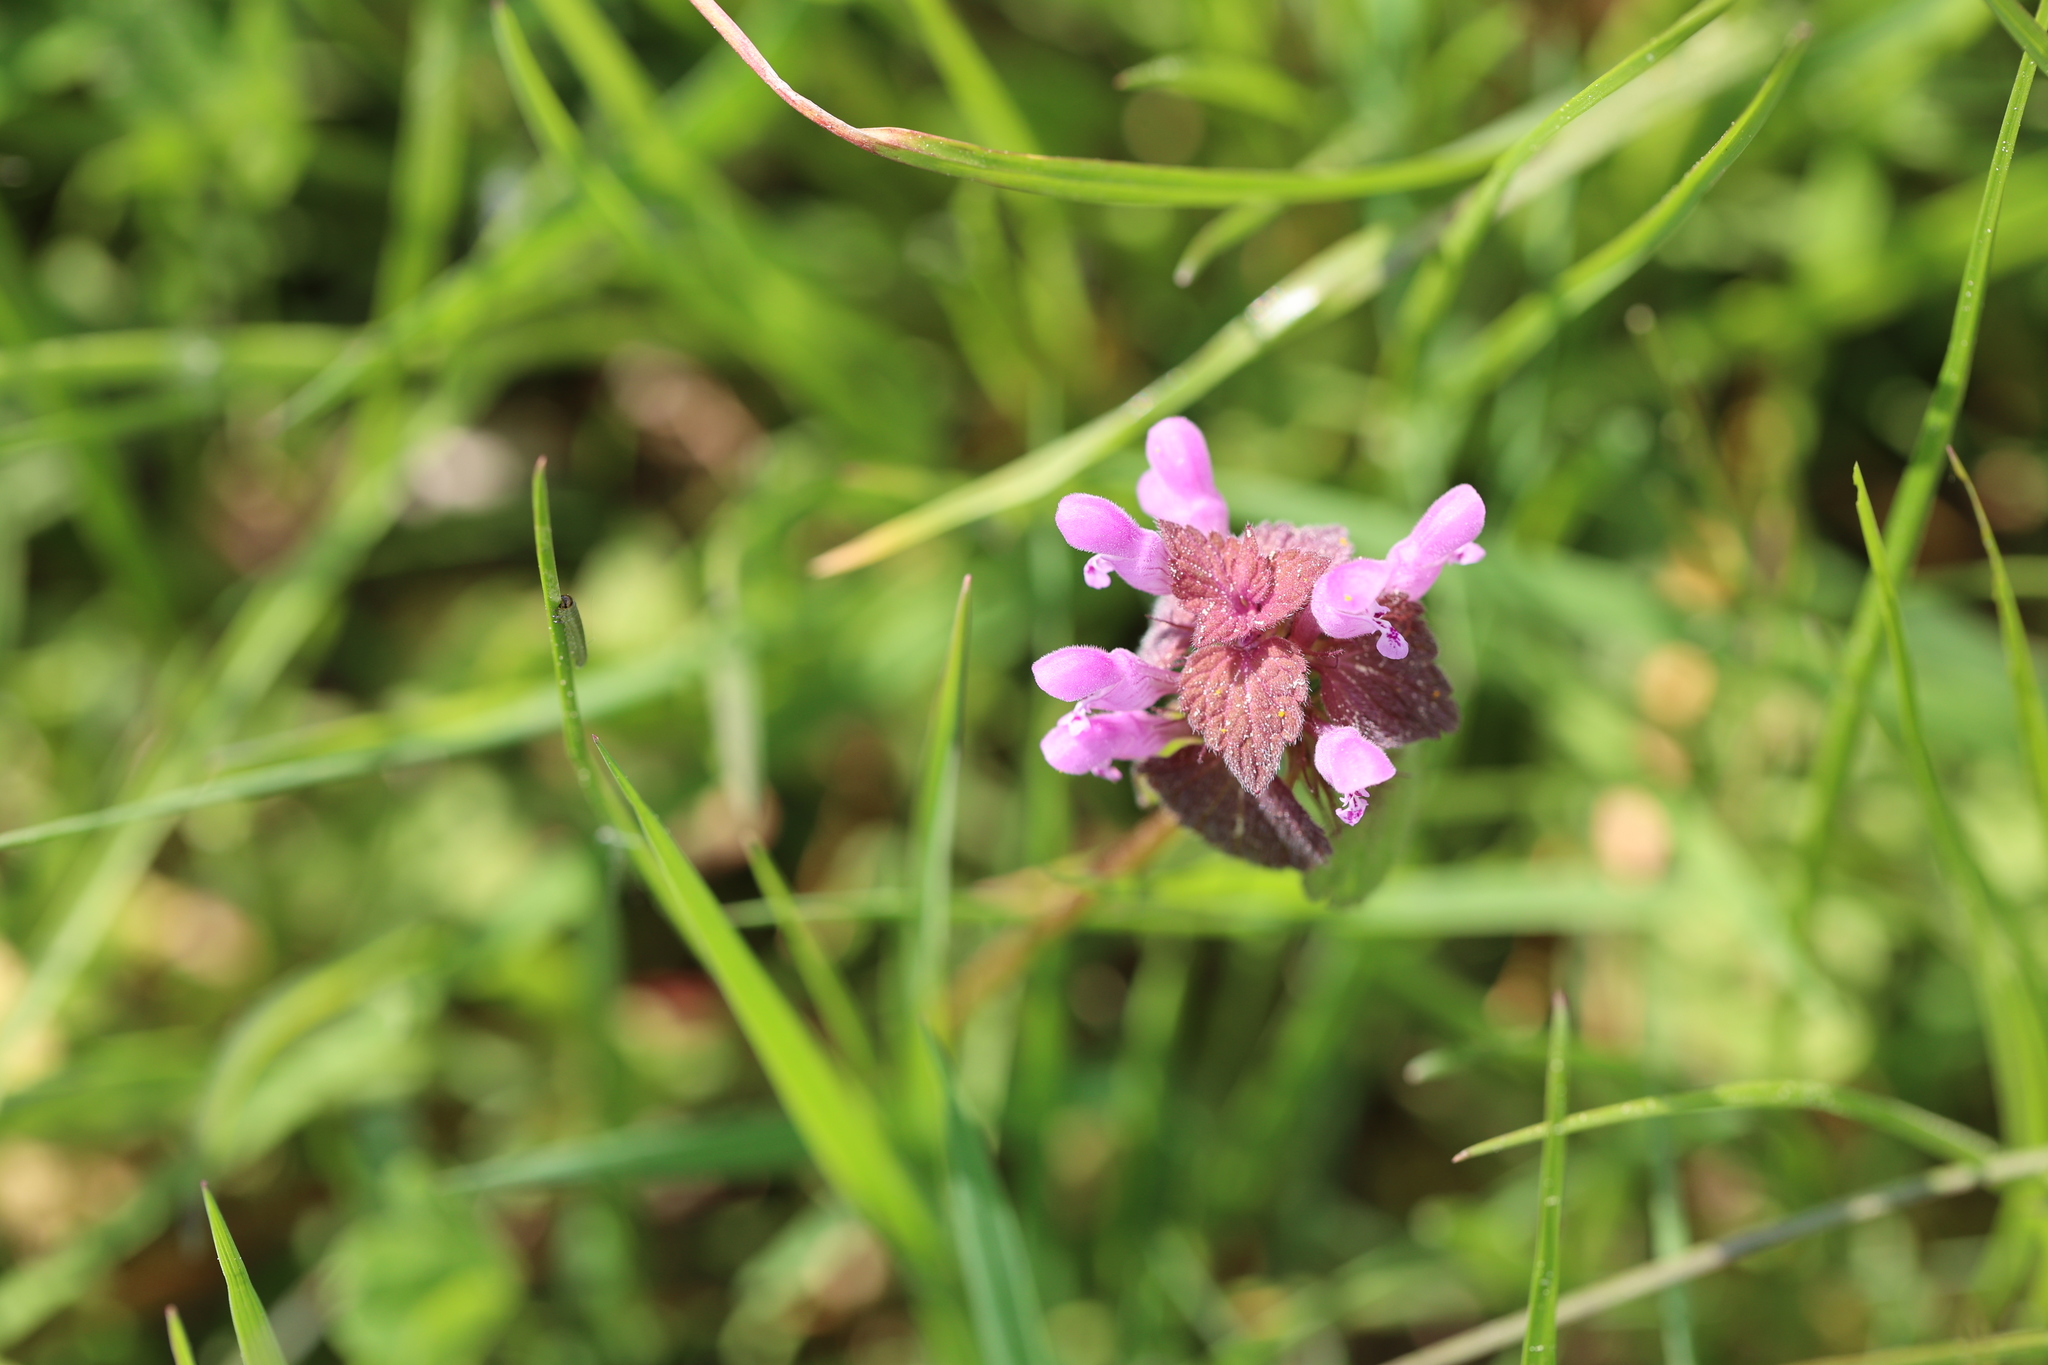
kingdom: Plantae
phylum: Tracheophyta
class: Magnoliopsida
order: Lamiales
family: Lamiaceae
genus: Lamium
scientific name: Lamium purpureum
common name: Red dead-nettle
